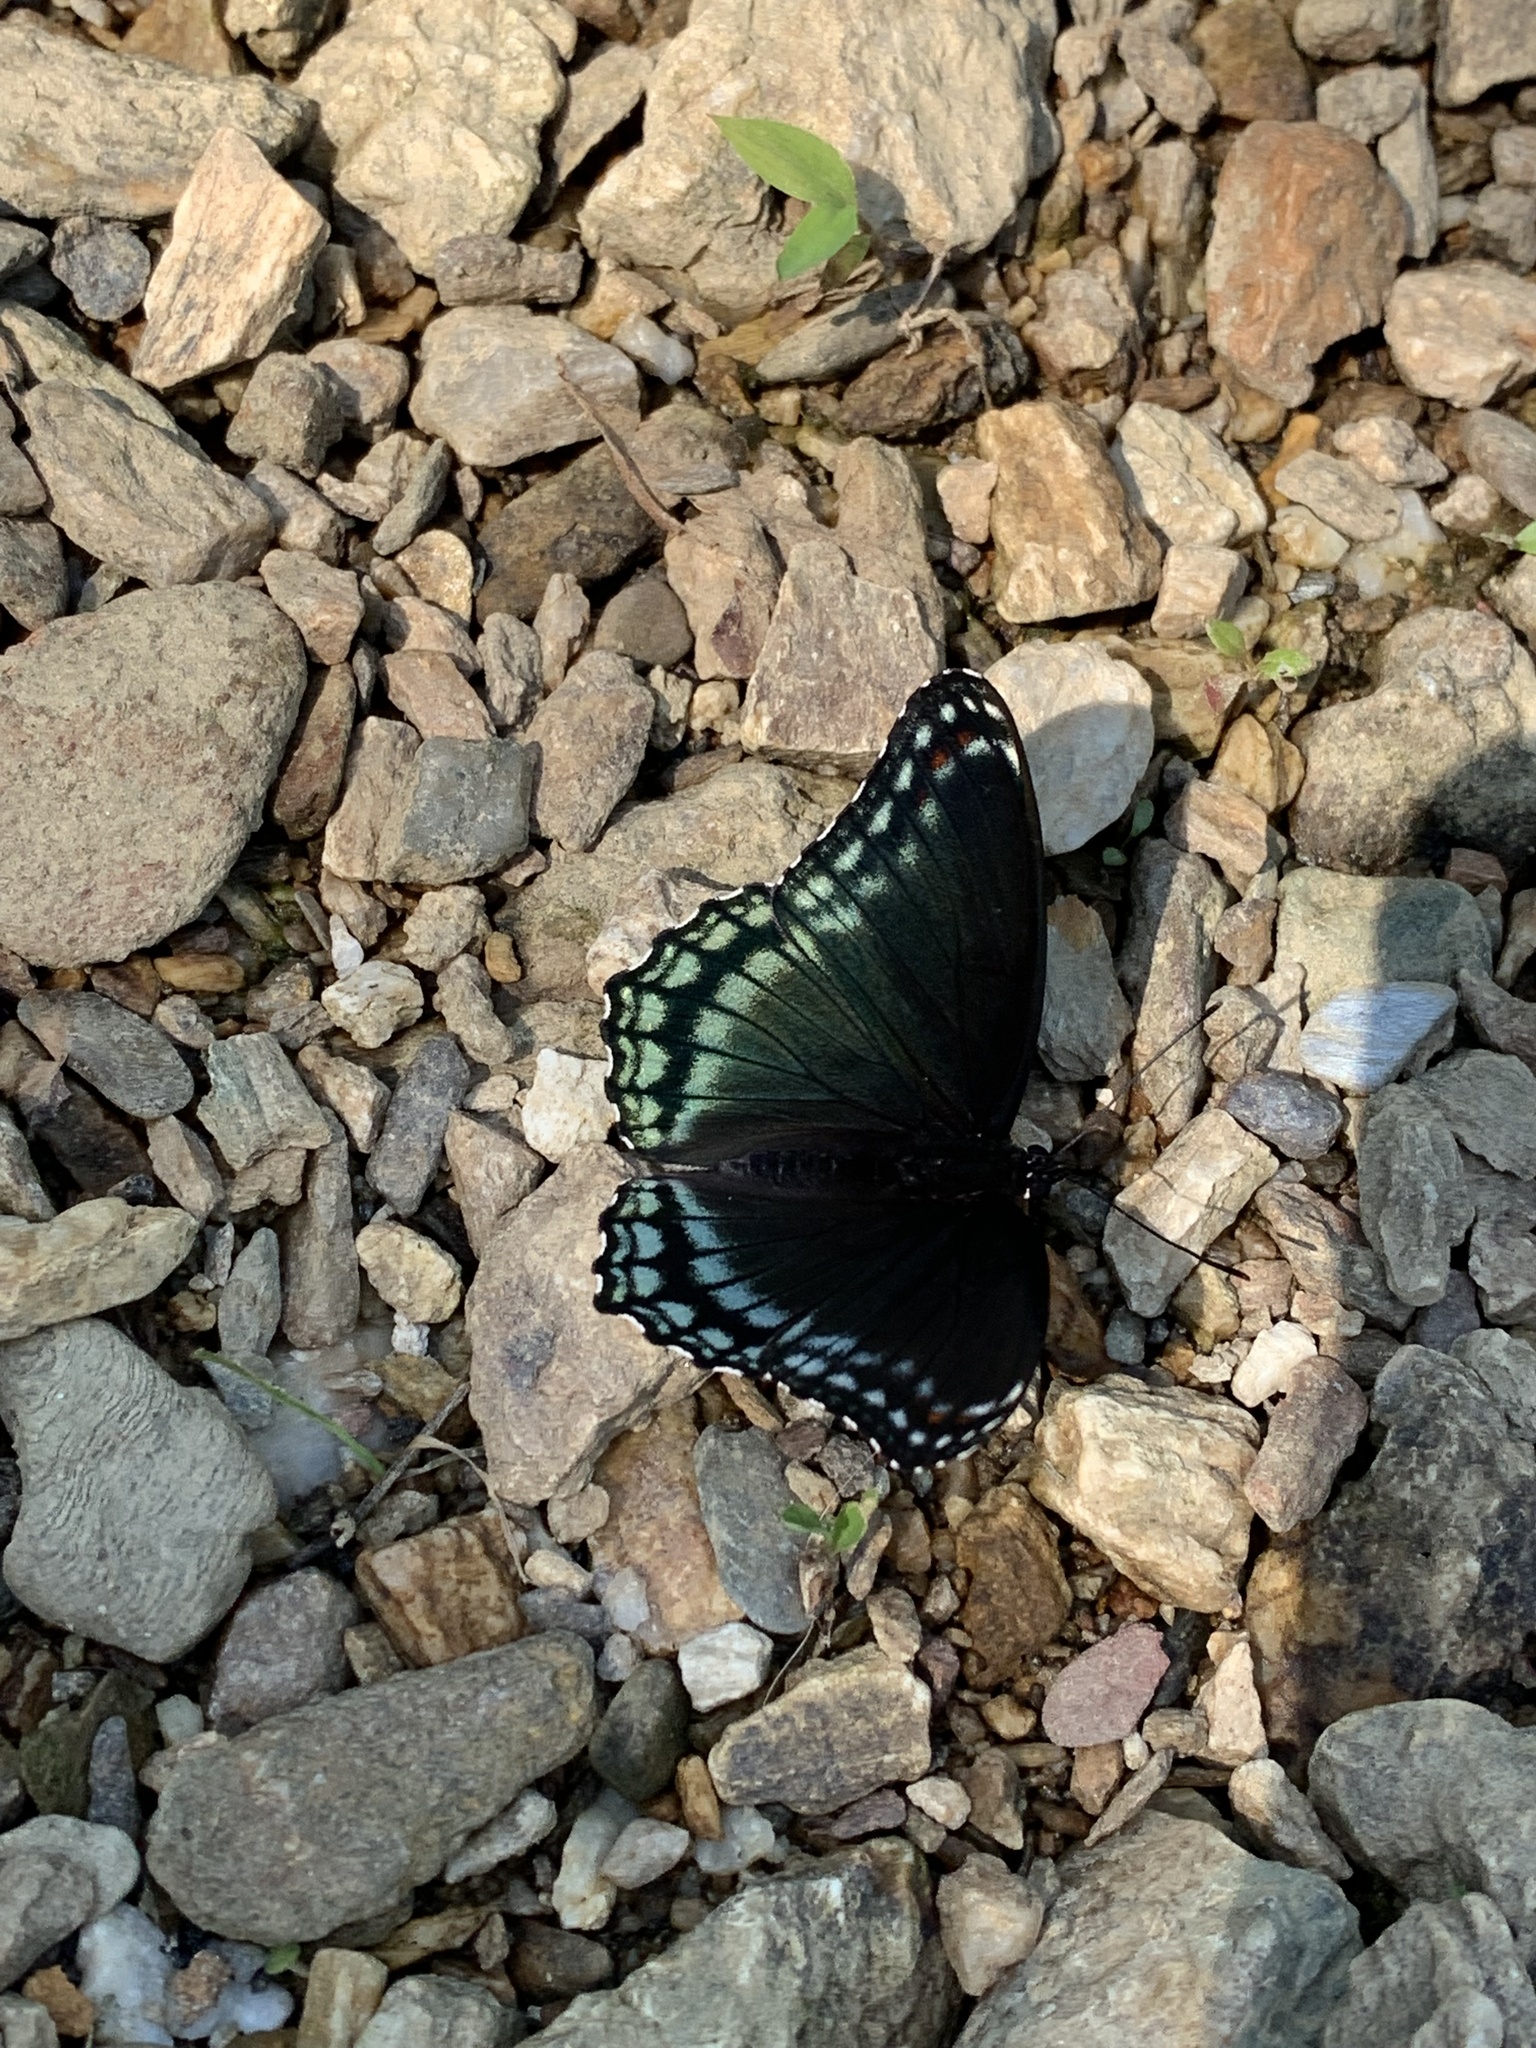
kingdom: Animalia
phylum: Arthropoda
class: Insecta
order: Lepidoptera
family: Nymphalidae
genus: Limenitis
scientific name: Limenitis astyanax
